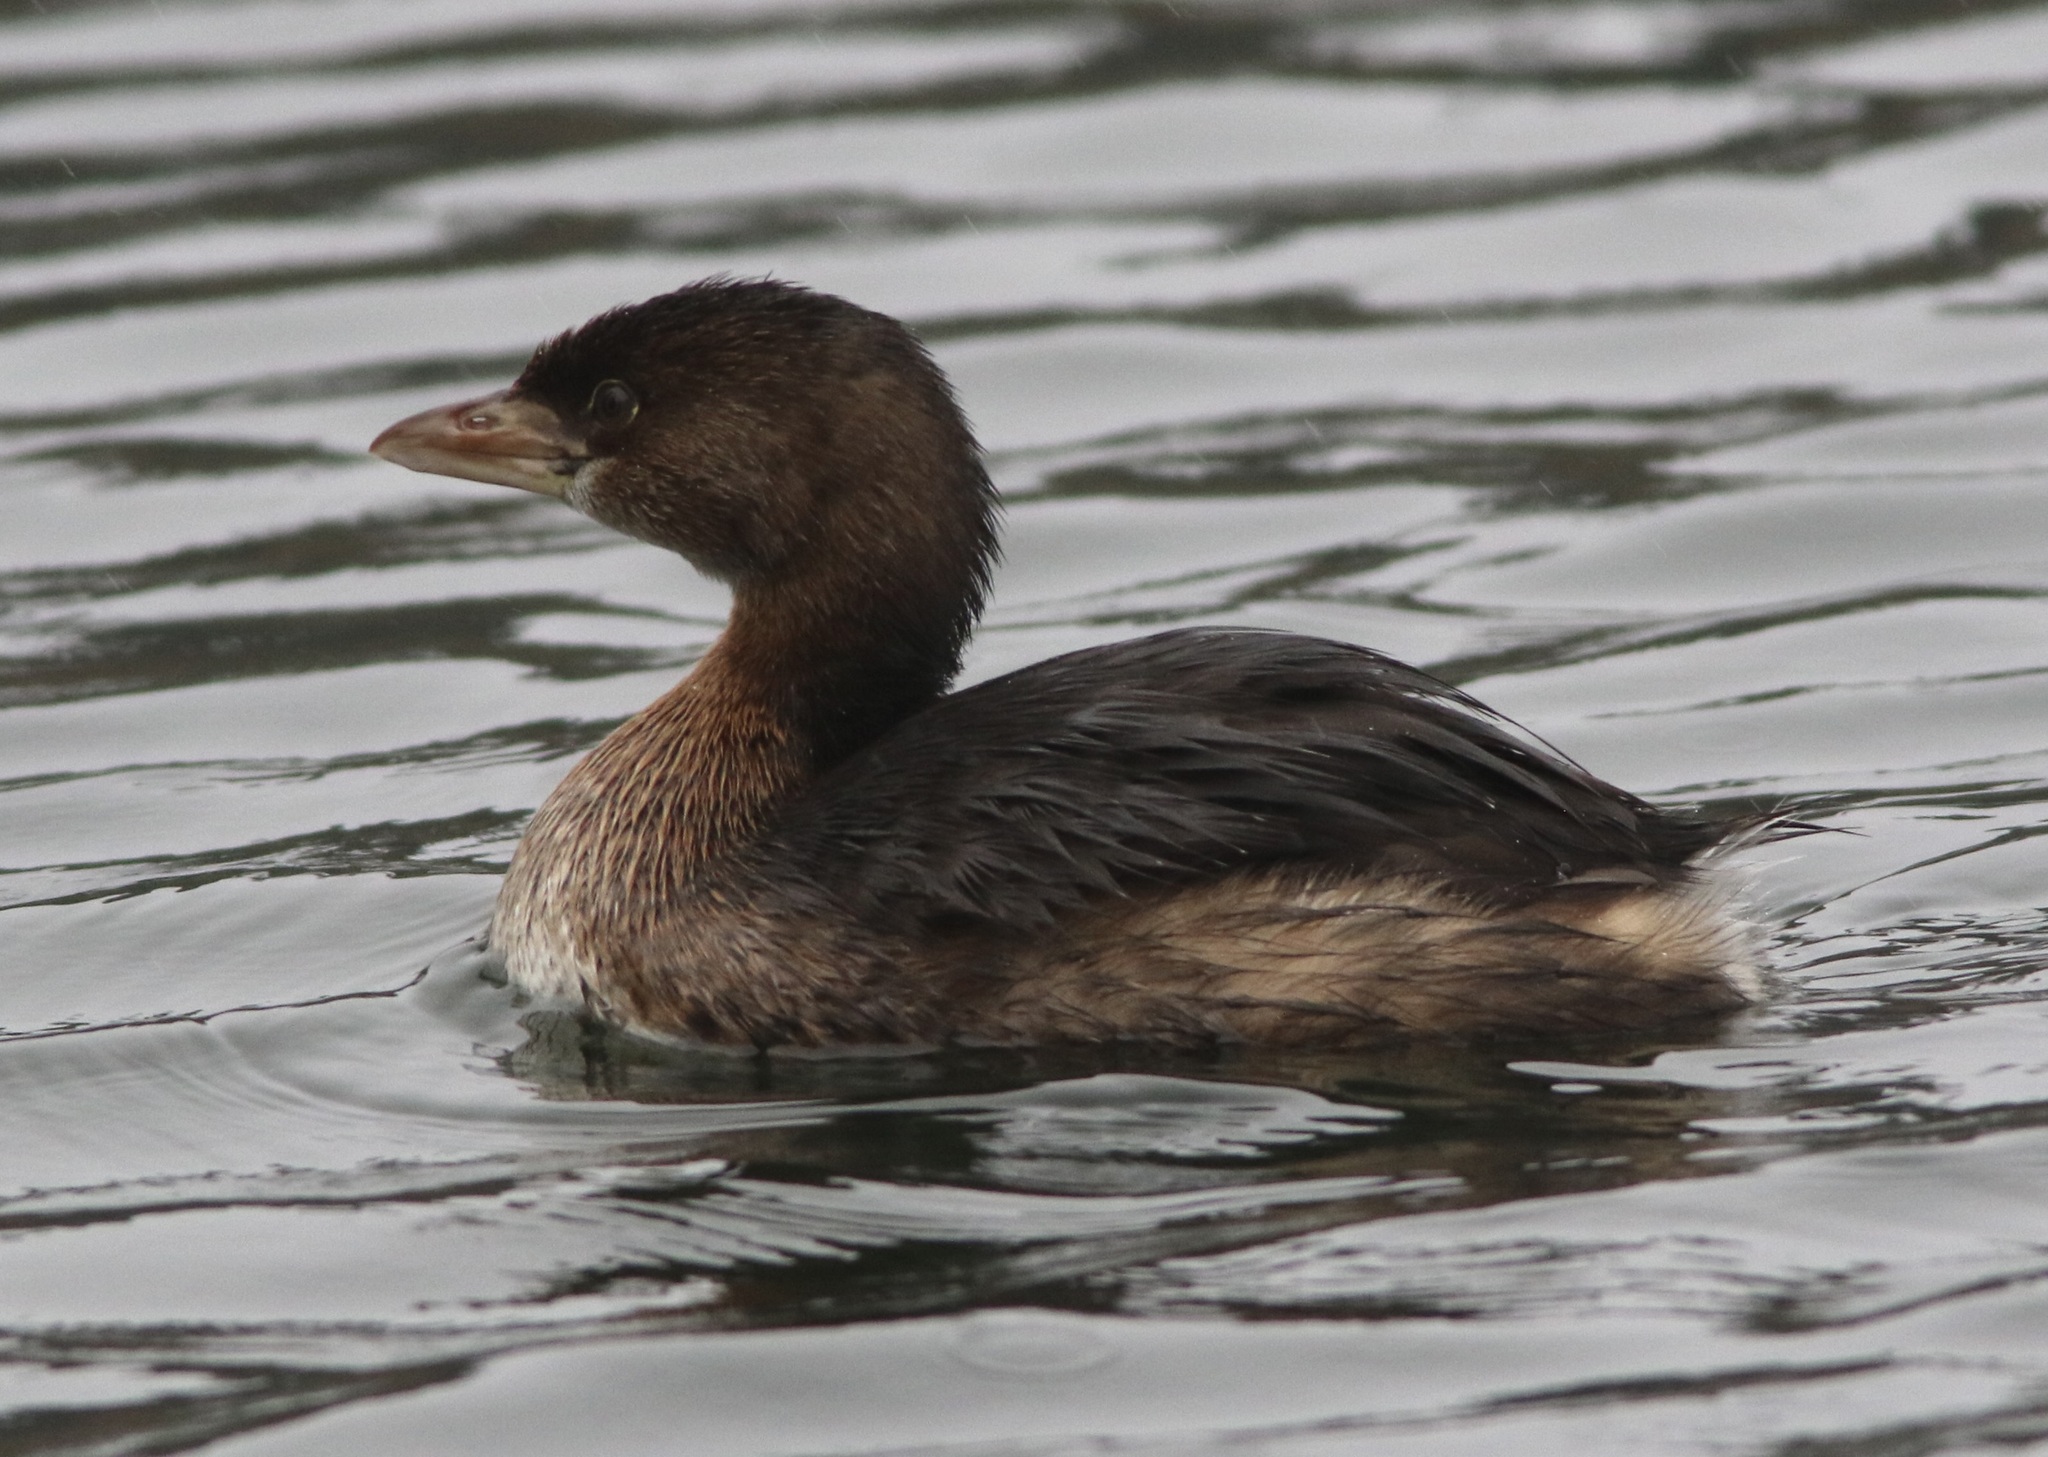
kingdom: Animalia
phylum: Chordata
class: Aves
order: Podicipediformes
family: Podicipedidae
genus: Podilymbus
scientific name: Podilymbus podiceps
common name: Pied-billed grebe
